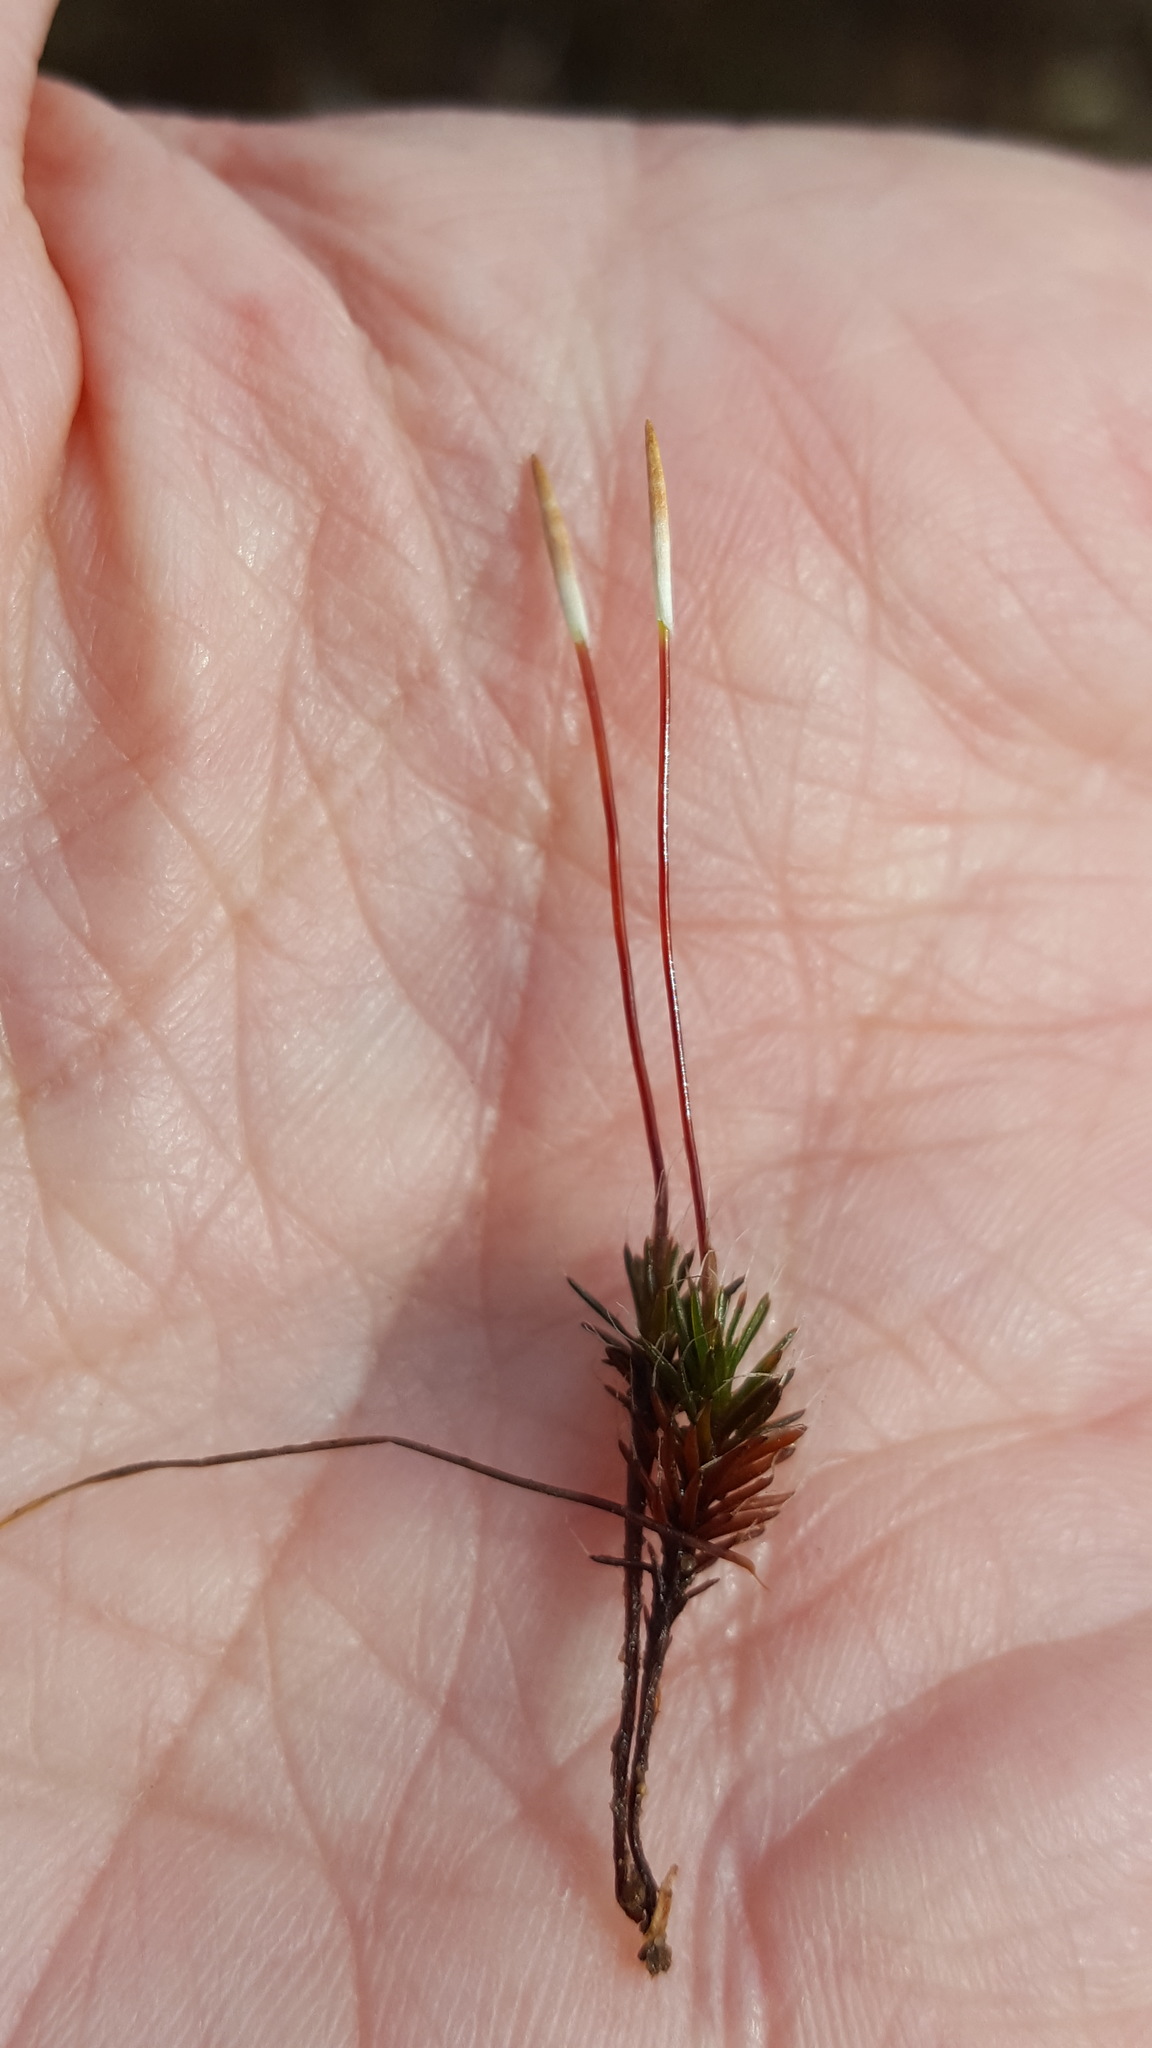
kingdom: Plantae
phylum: Bryophyta
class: Polytrichopsida
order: Polytrichales
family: Polytrichaceae
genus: Polytrichum
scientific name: Polytrichum piliferum
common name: Bristly haircap
